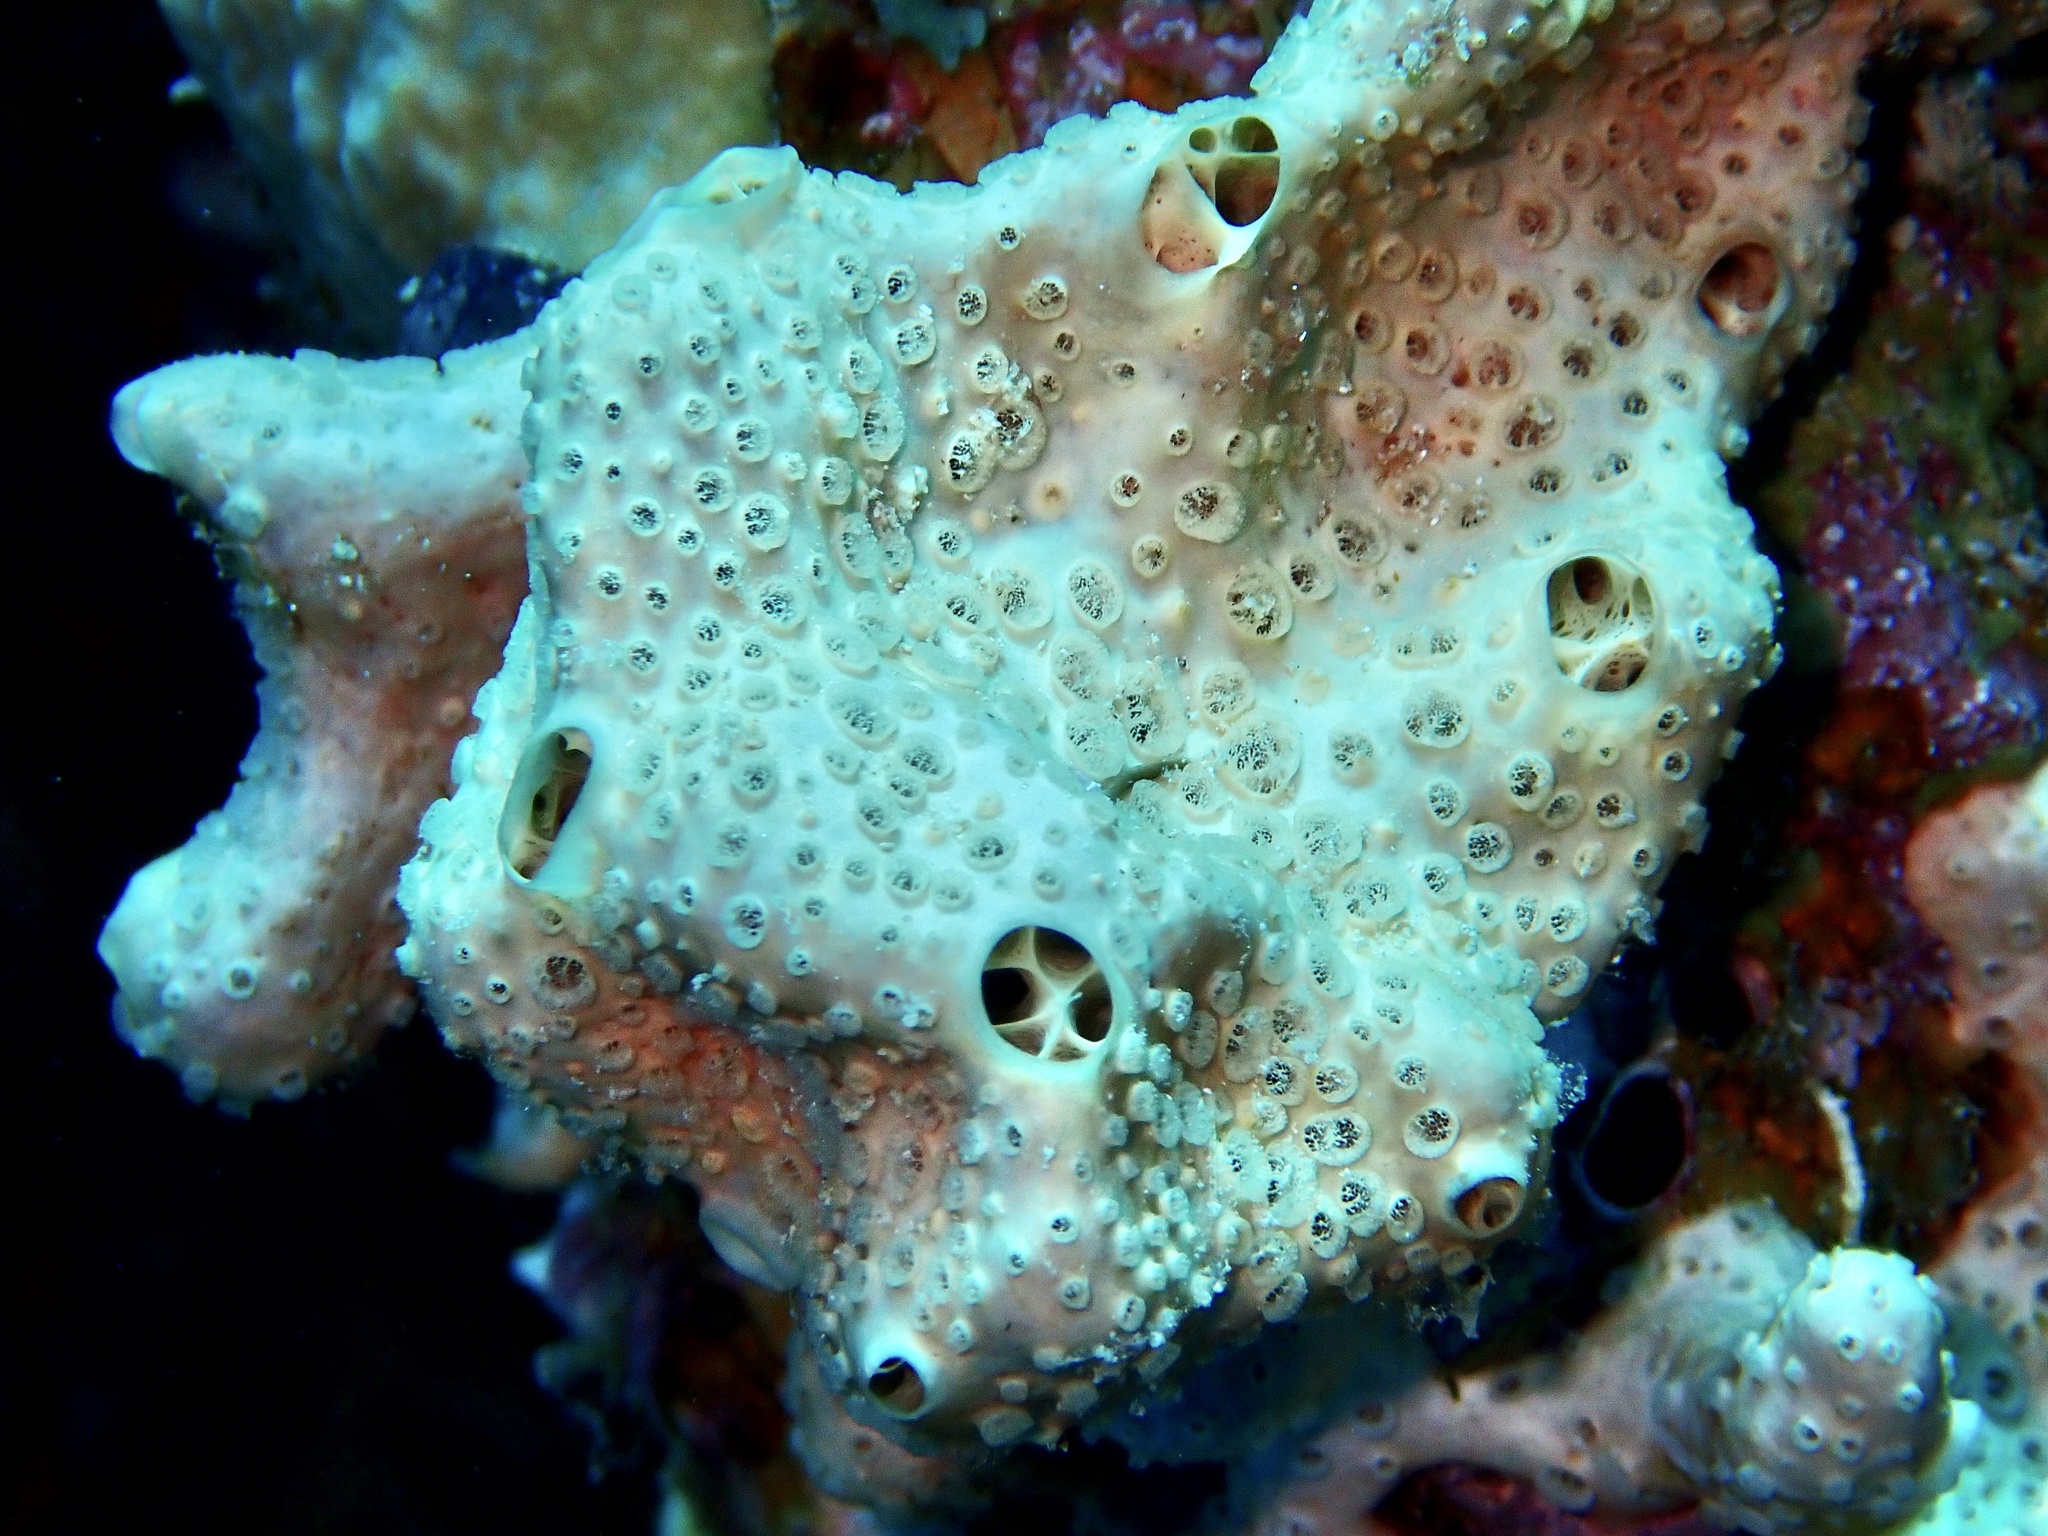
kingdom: Animalia
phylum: Porifera
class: Demospongiae
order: Poecilosclerida
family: Crellidae
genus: Crella
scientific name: Crella cyathophora
